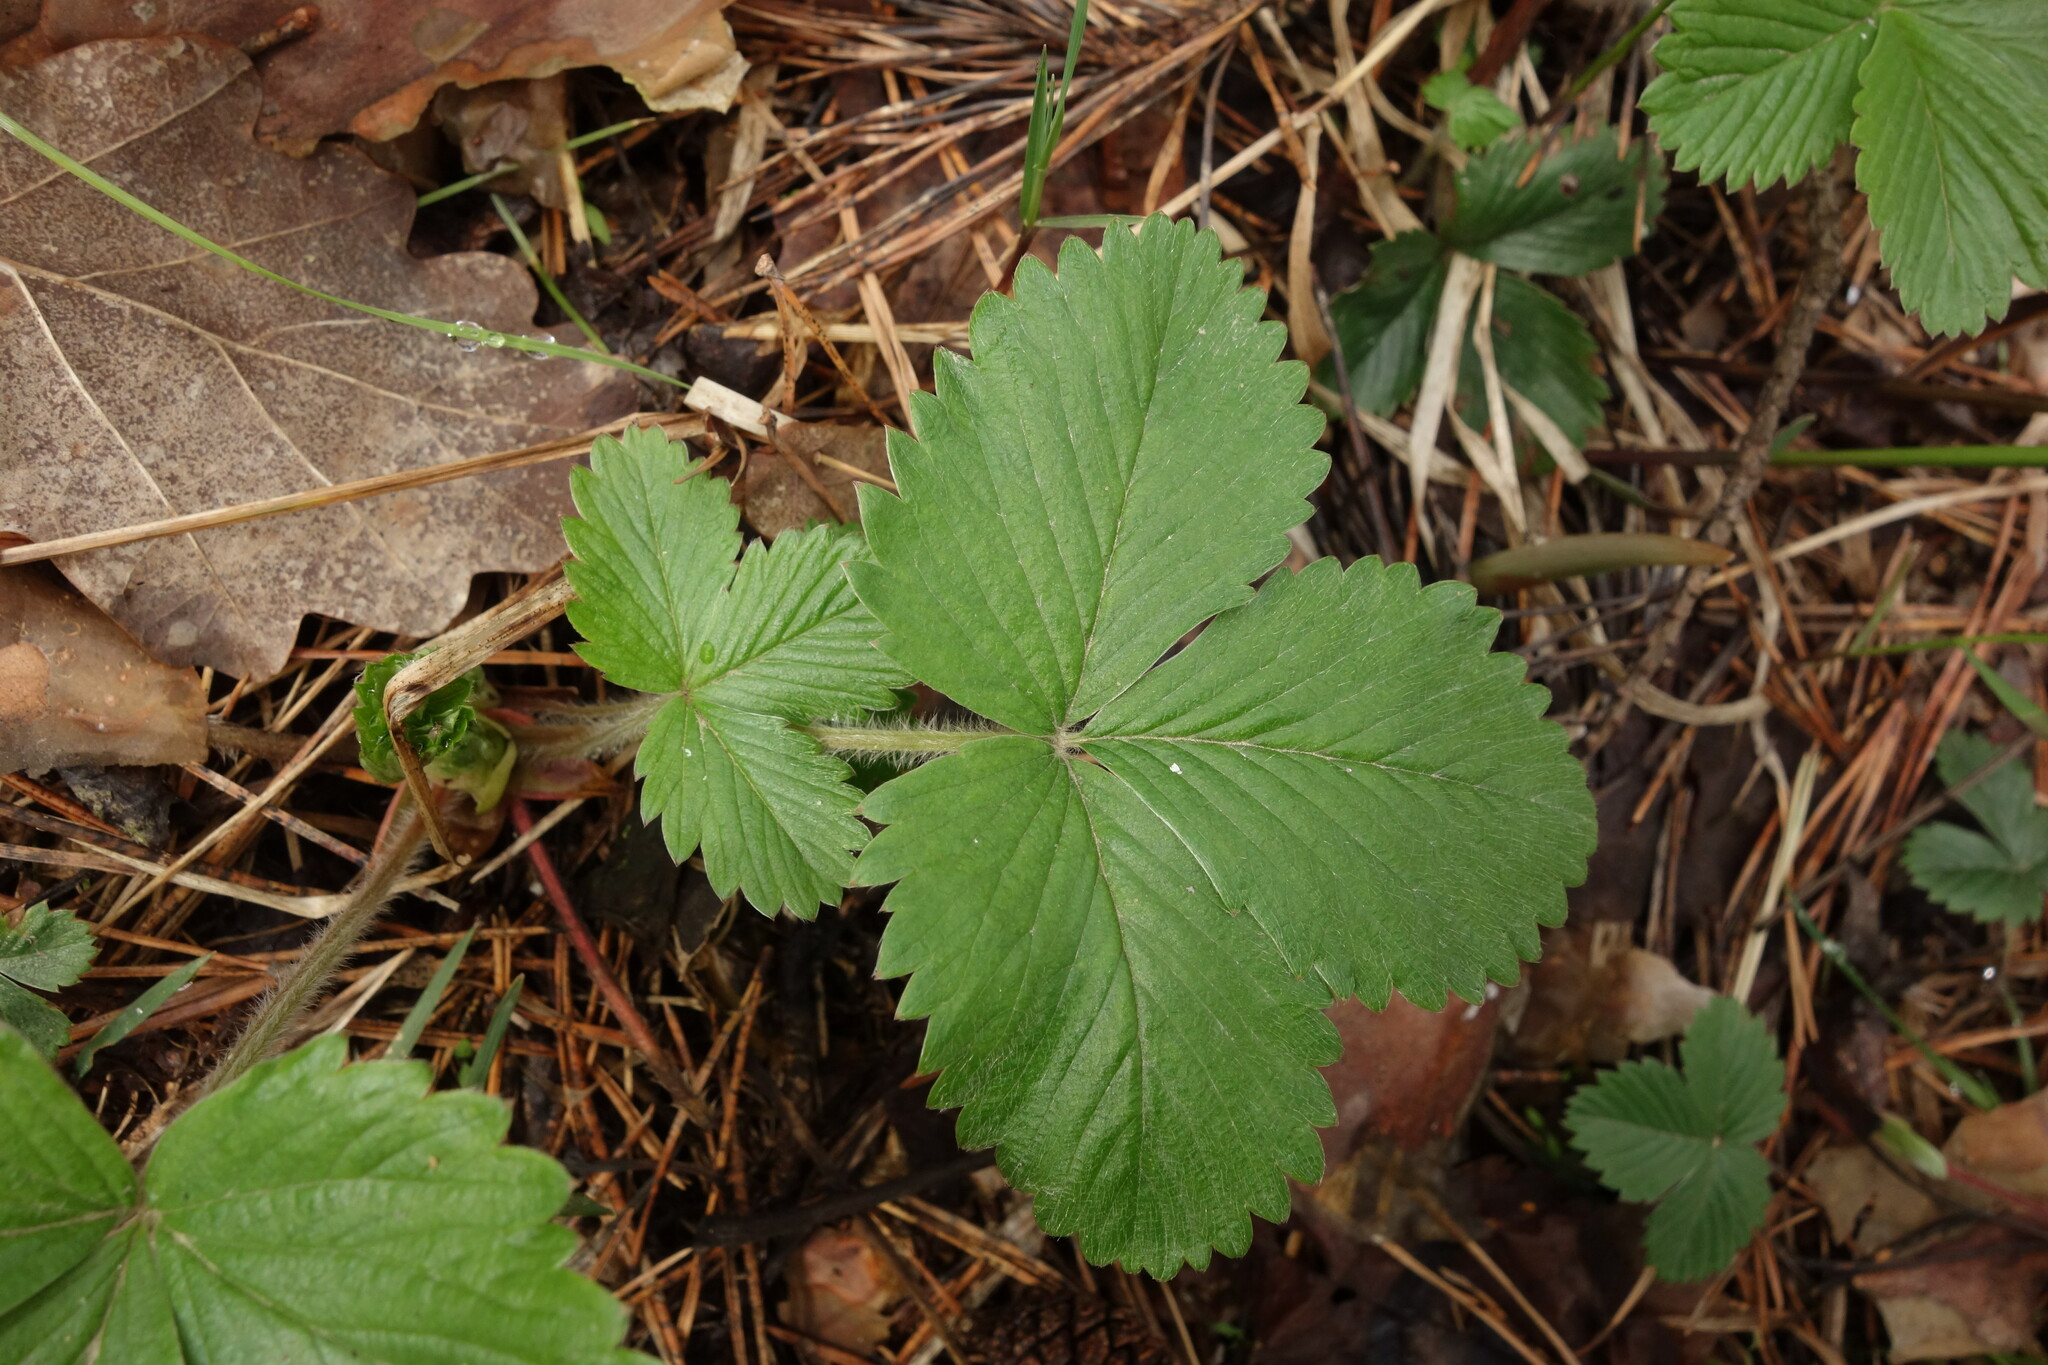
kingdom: Plantae
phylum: Tracheophyta
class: Magnoliopsida
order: Rosales
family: Rosaceae
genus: Fragaria
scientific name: Fragaria vesca
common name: Wild strawberry
